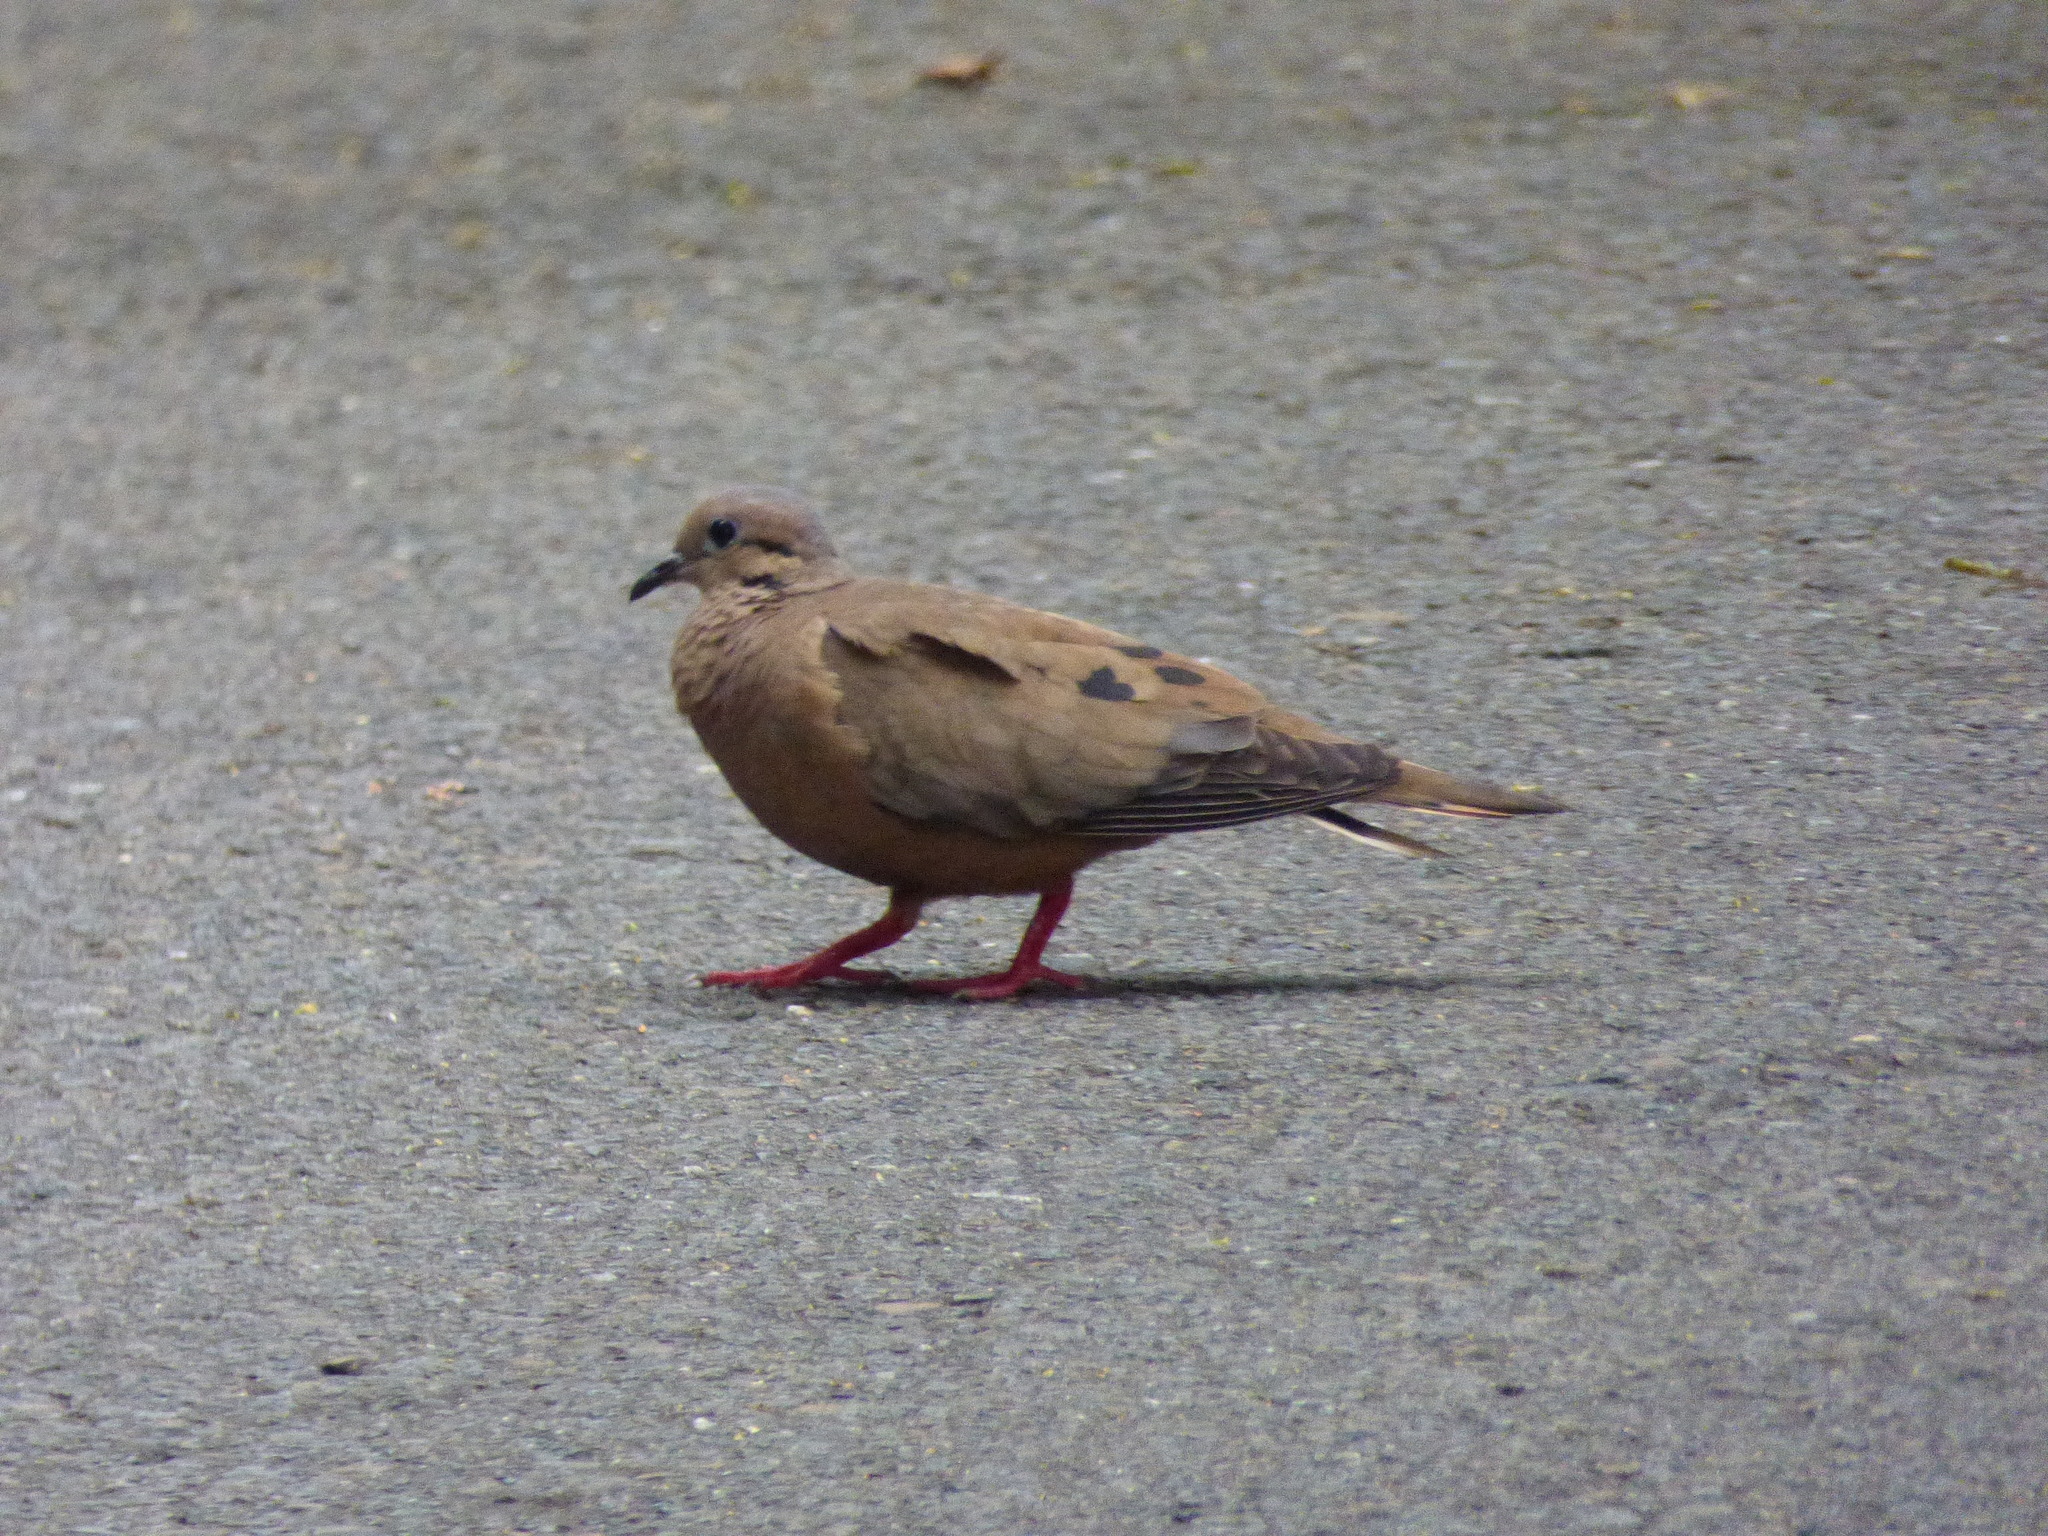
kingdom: Animalia
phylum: Chordata
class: Aves
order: Columbiformes
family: Columbidae
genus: Zenaida
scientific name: Zenaida auriculata
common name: Eared dove
